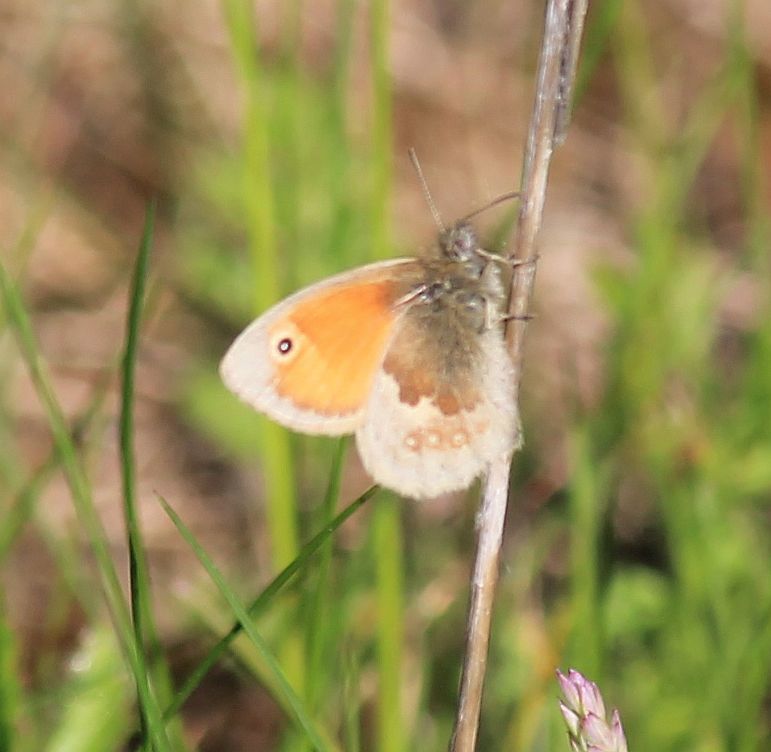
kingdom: Animalia
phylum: Arthropoda
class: Insecta
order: Lepidoptera
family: Nymphalidae
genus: Coenonympha
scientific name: Coenonympha pamphilus
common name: Small heath
